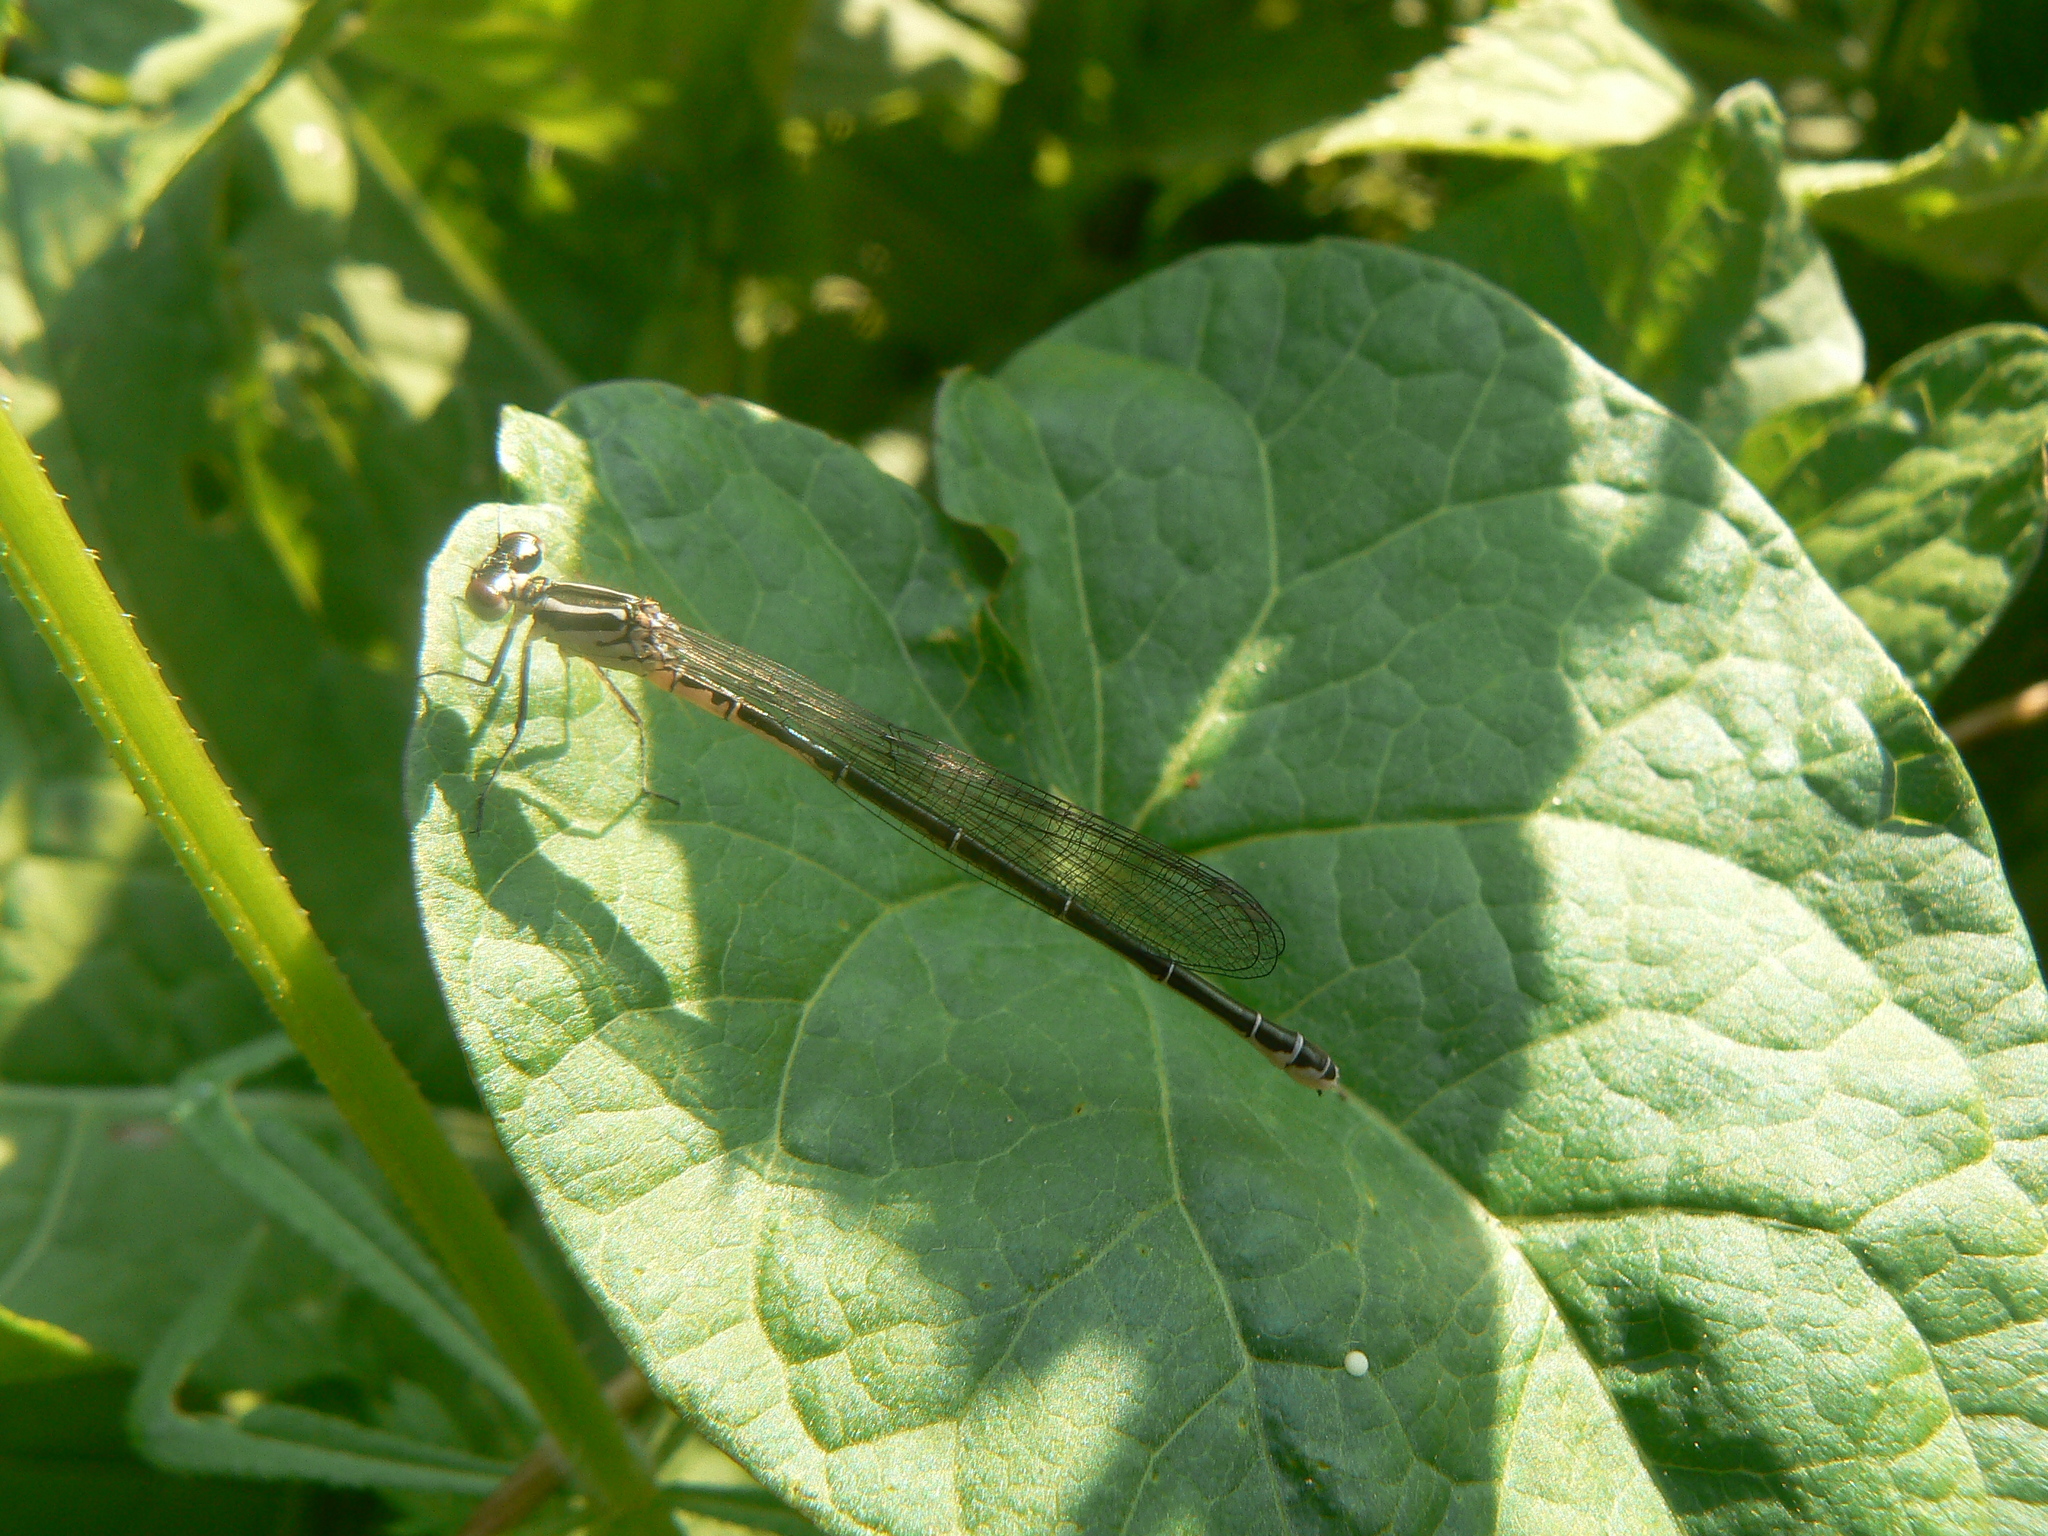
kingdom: Animalia
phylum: Arthropoda
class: Insecta
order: Odonata
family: Coenagrionidae
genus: Coenagrion
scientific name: Coenagrion puella
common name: Azure damselfly
